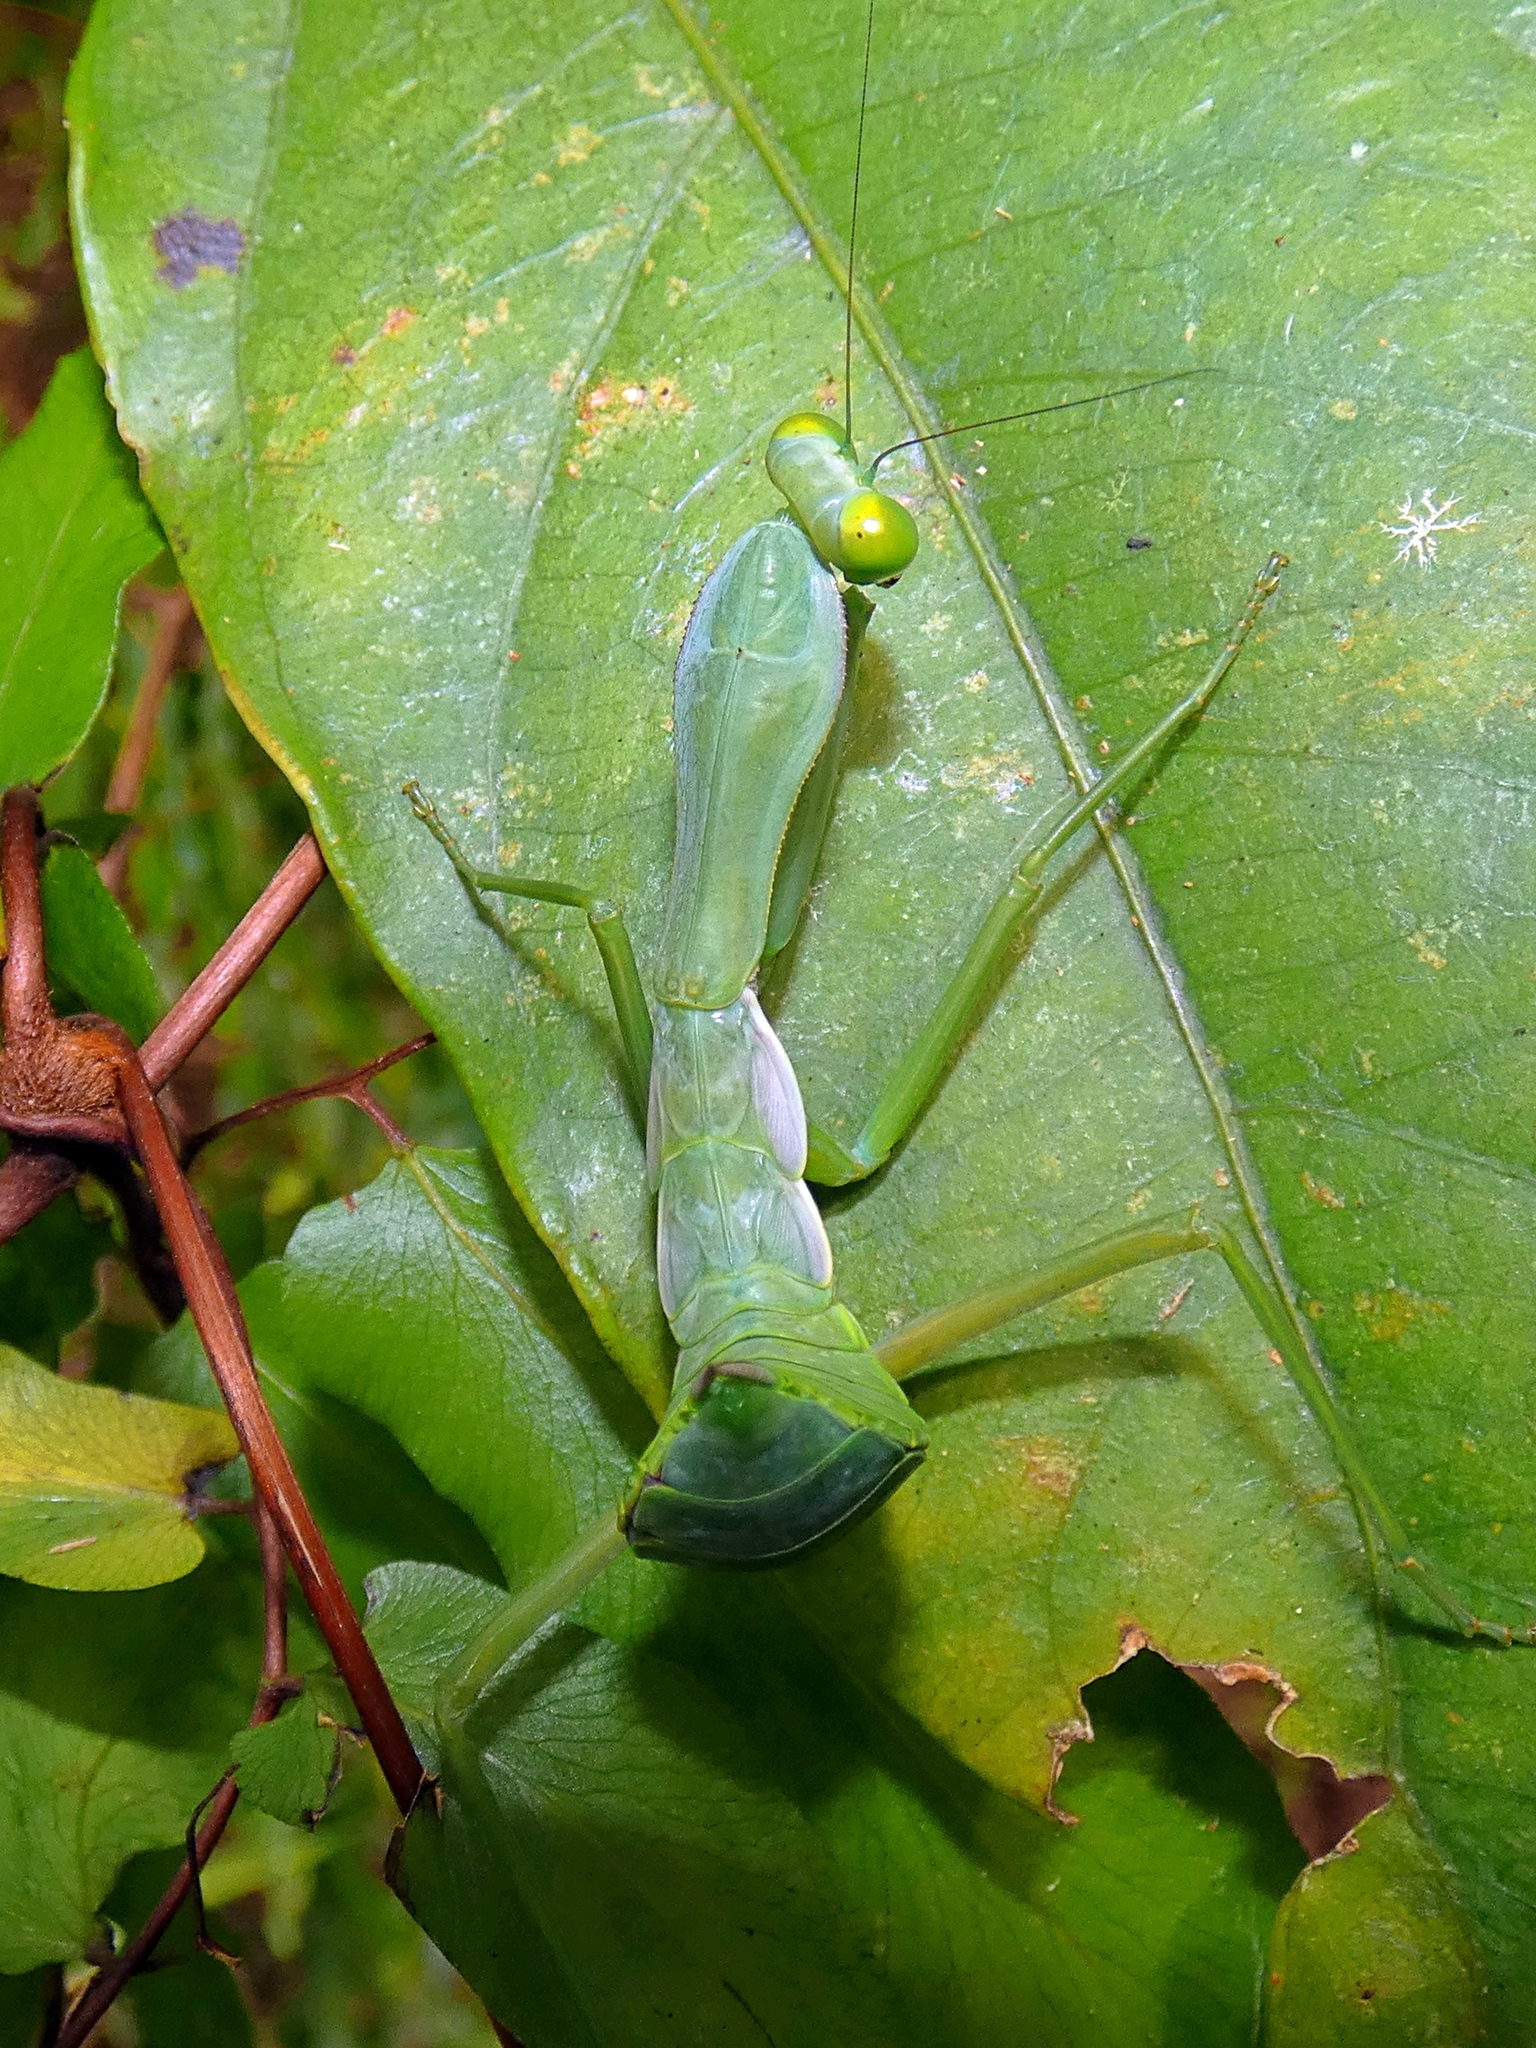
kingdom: Animalia
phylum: Arthropoda
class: Insecta
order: Mantodea
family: Mantidae
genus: Hierodula
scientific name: Hierodula majuscula
